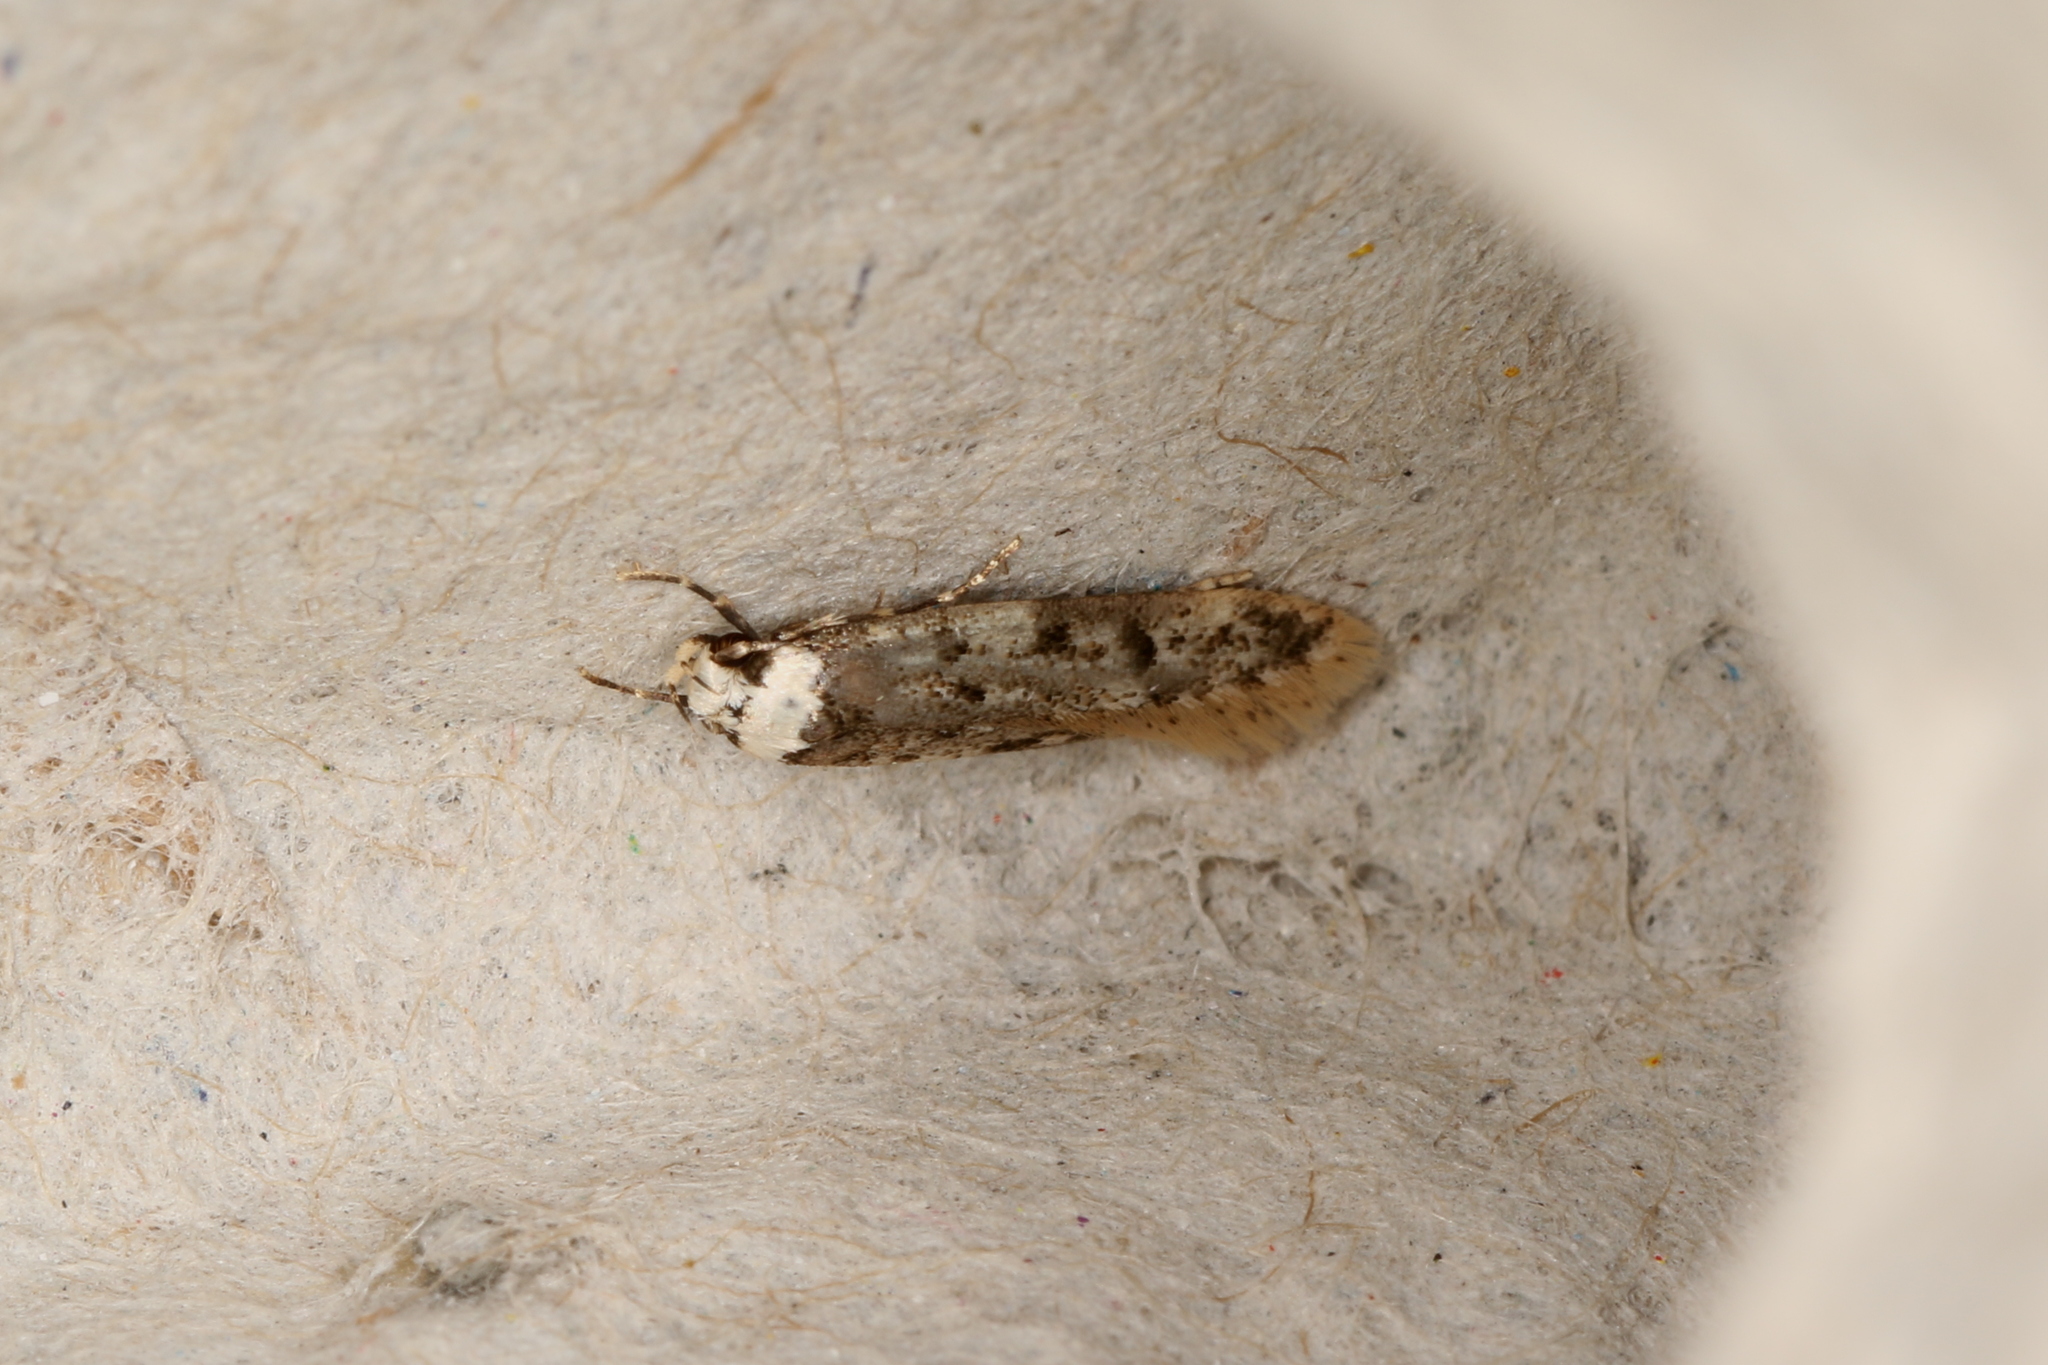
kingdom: Animalia
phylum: Arthropoda
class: Insecta
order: Lepidoptera
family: Oecophoridae
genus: Endrosis
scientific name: Endrosis sarcitrella
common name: White-shouldered house moth
